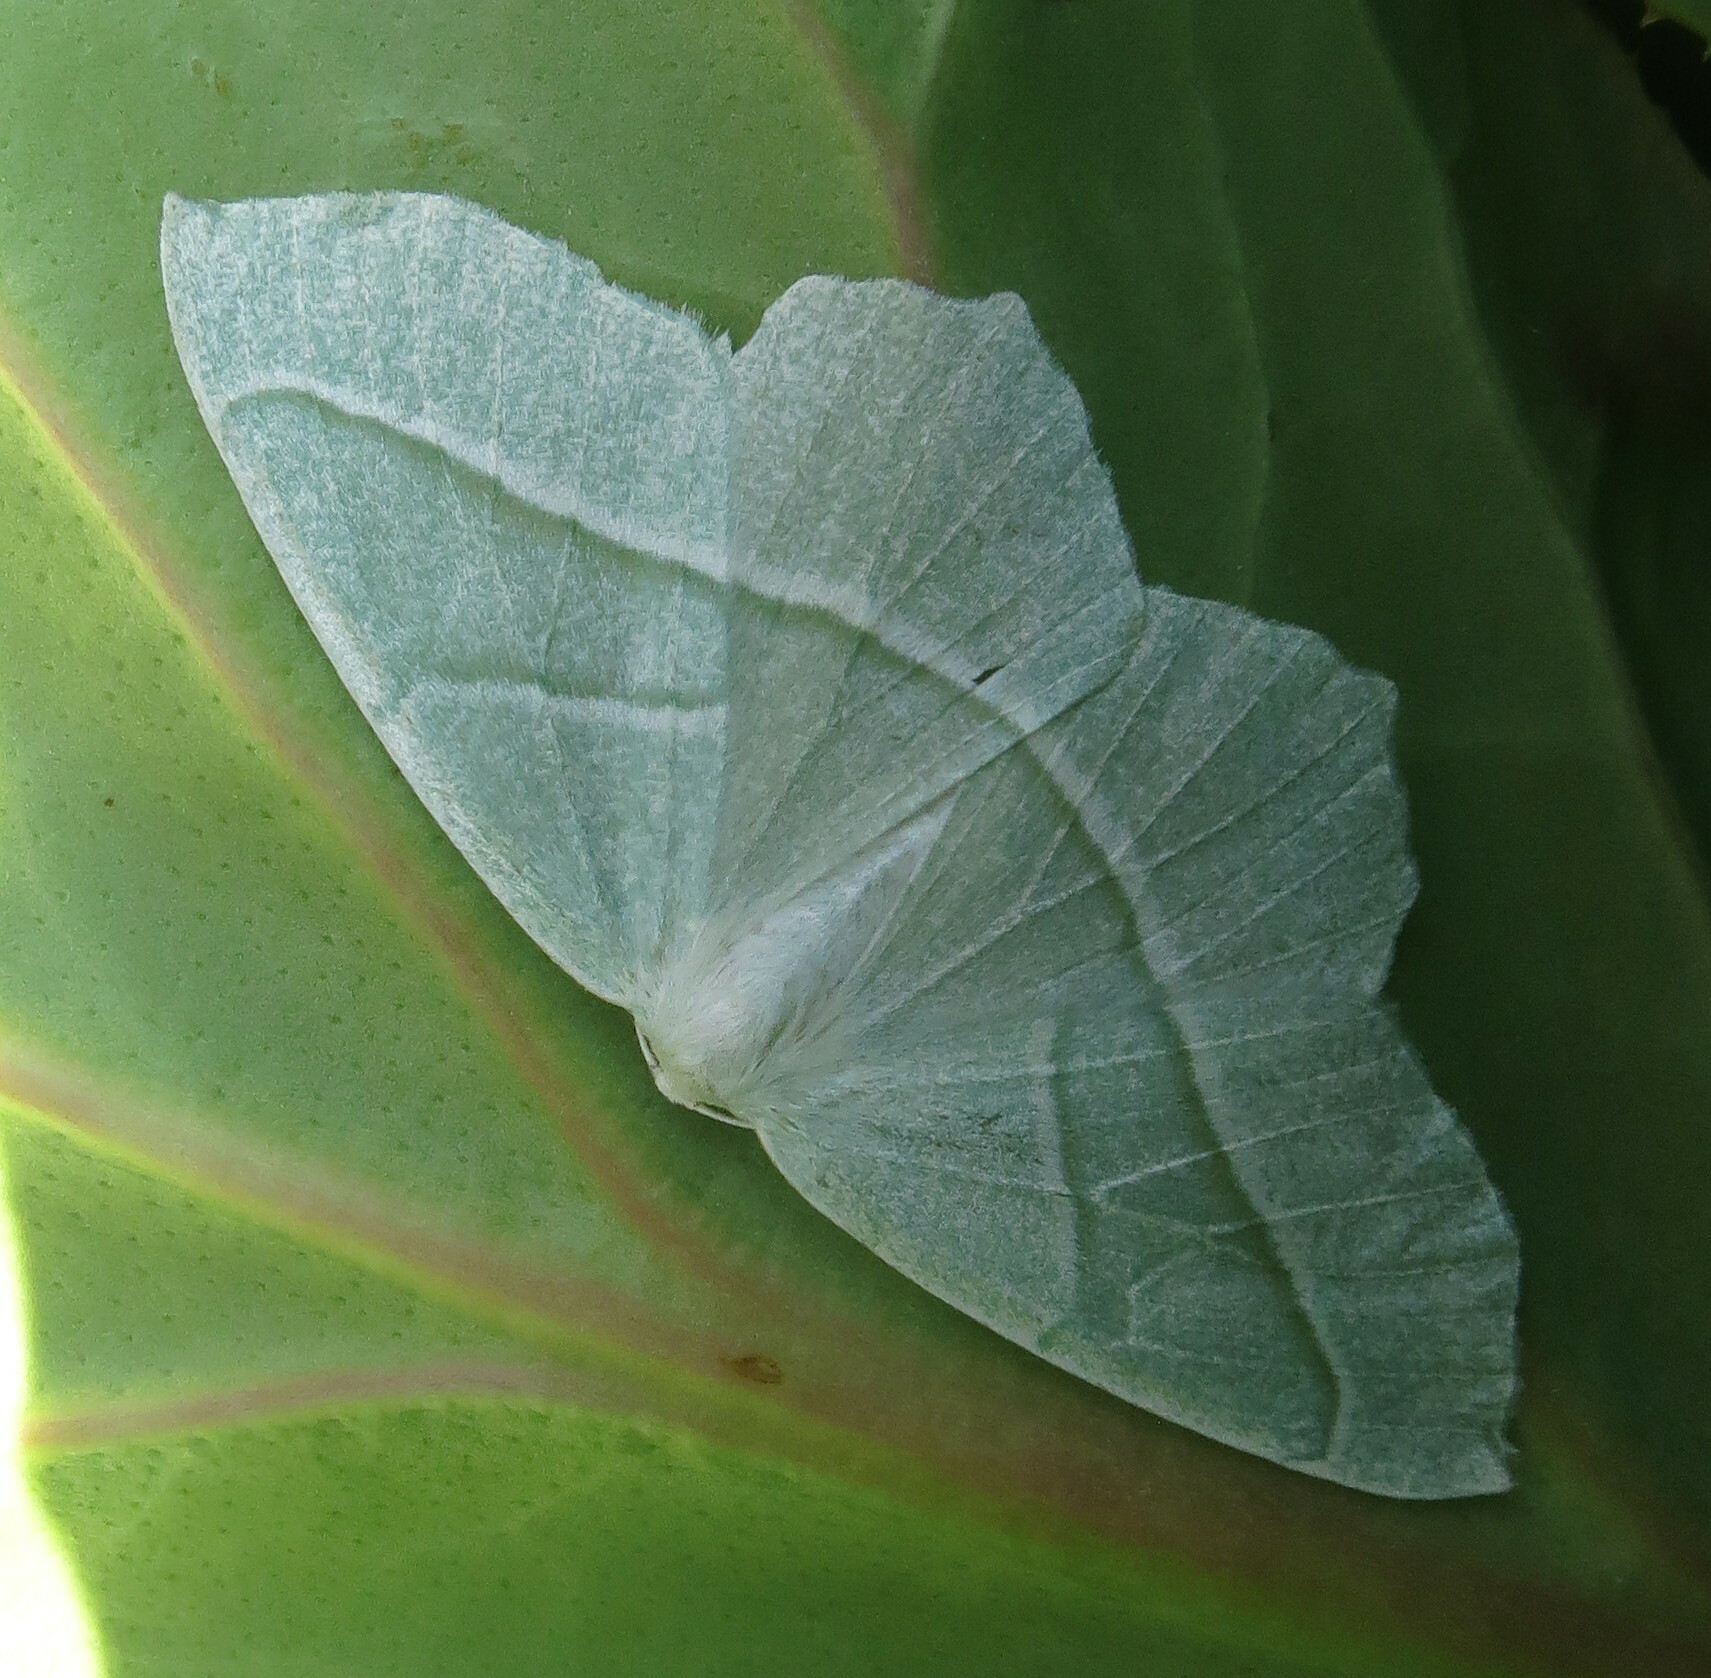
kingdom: Animalia
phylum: Arthropoda
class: Insecta
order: Lepidoptera
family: Geometridae
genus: Campaea
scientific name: Campaea margaritaria
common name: Light emerald
